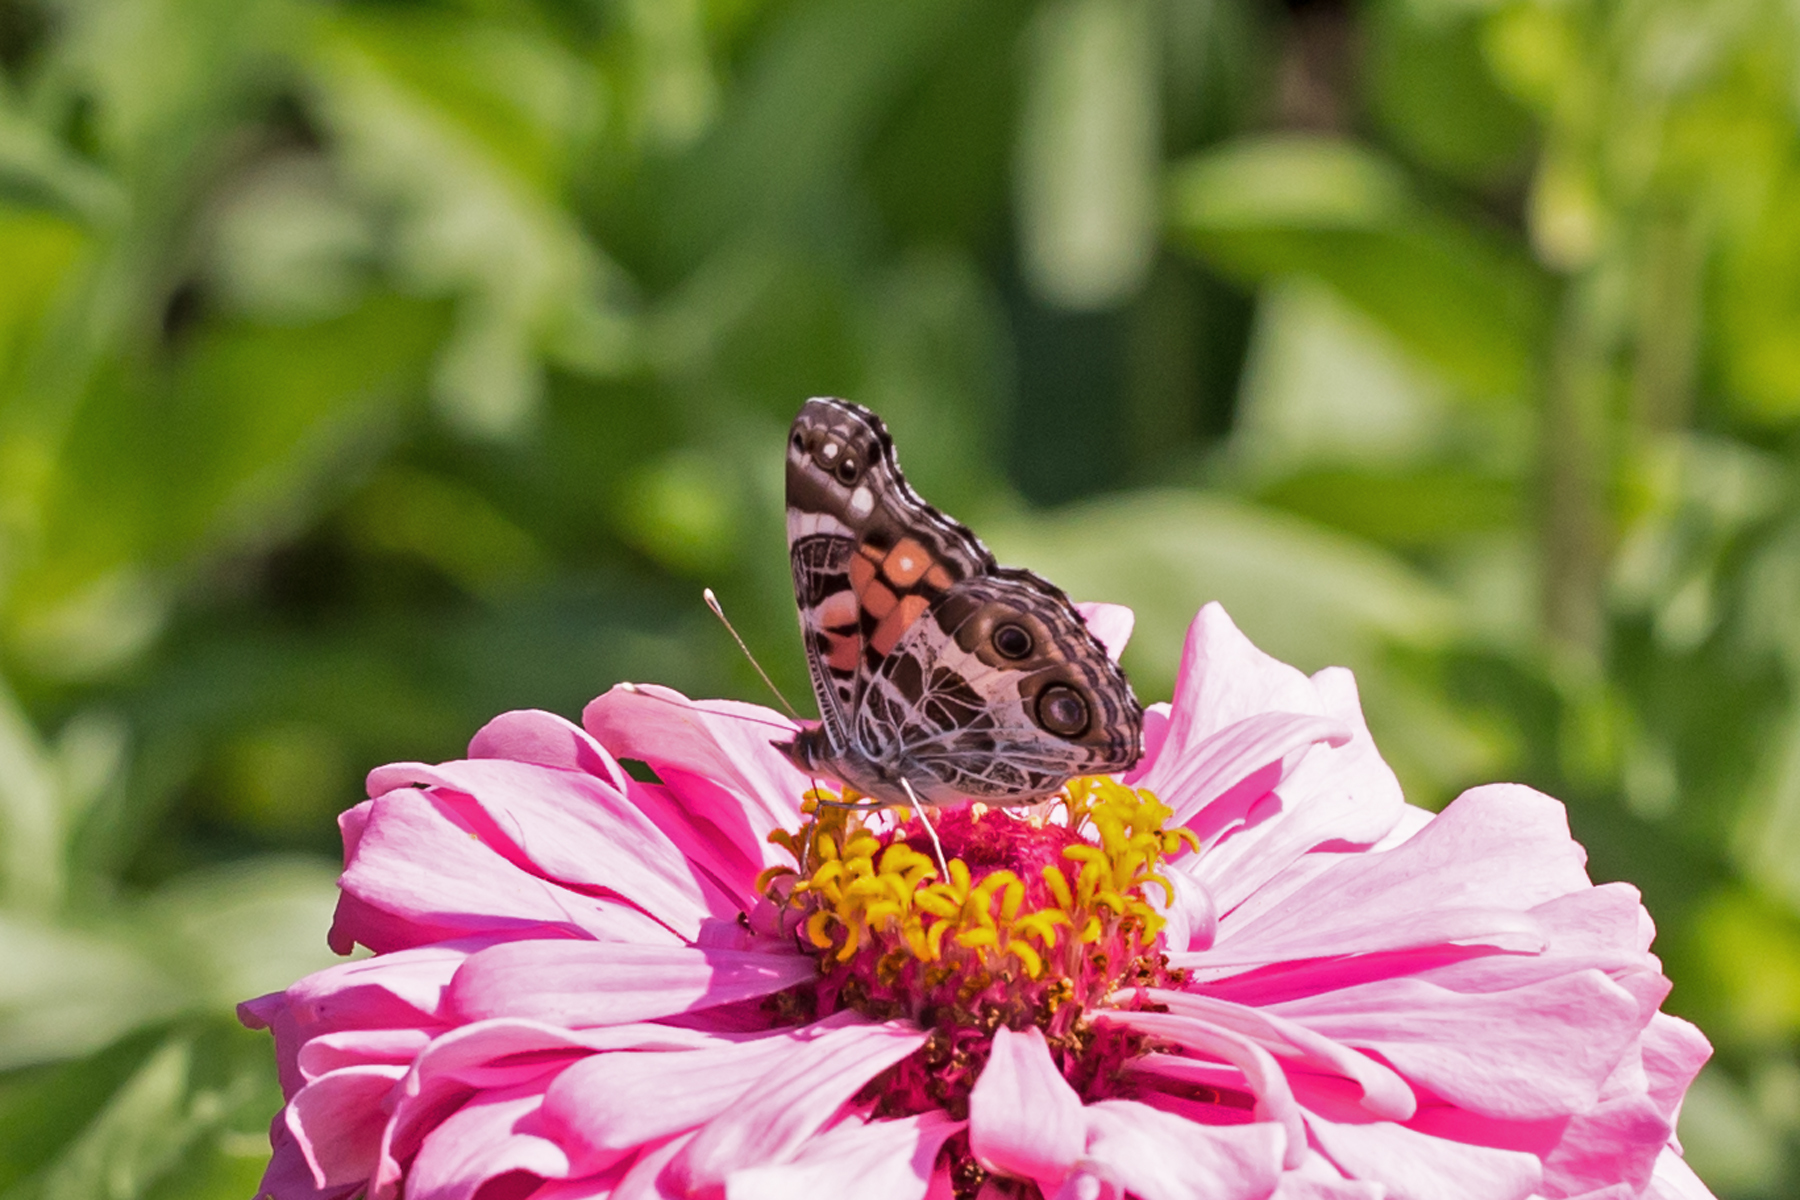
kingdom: Animalia
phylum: Arthropoda
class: Insecta
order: Lepidoptera
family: Nymphalidae
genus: Vanessa
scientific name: Vanessa virginiensis
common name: American lady
